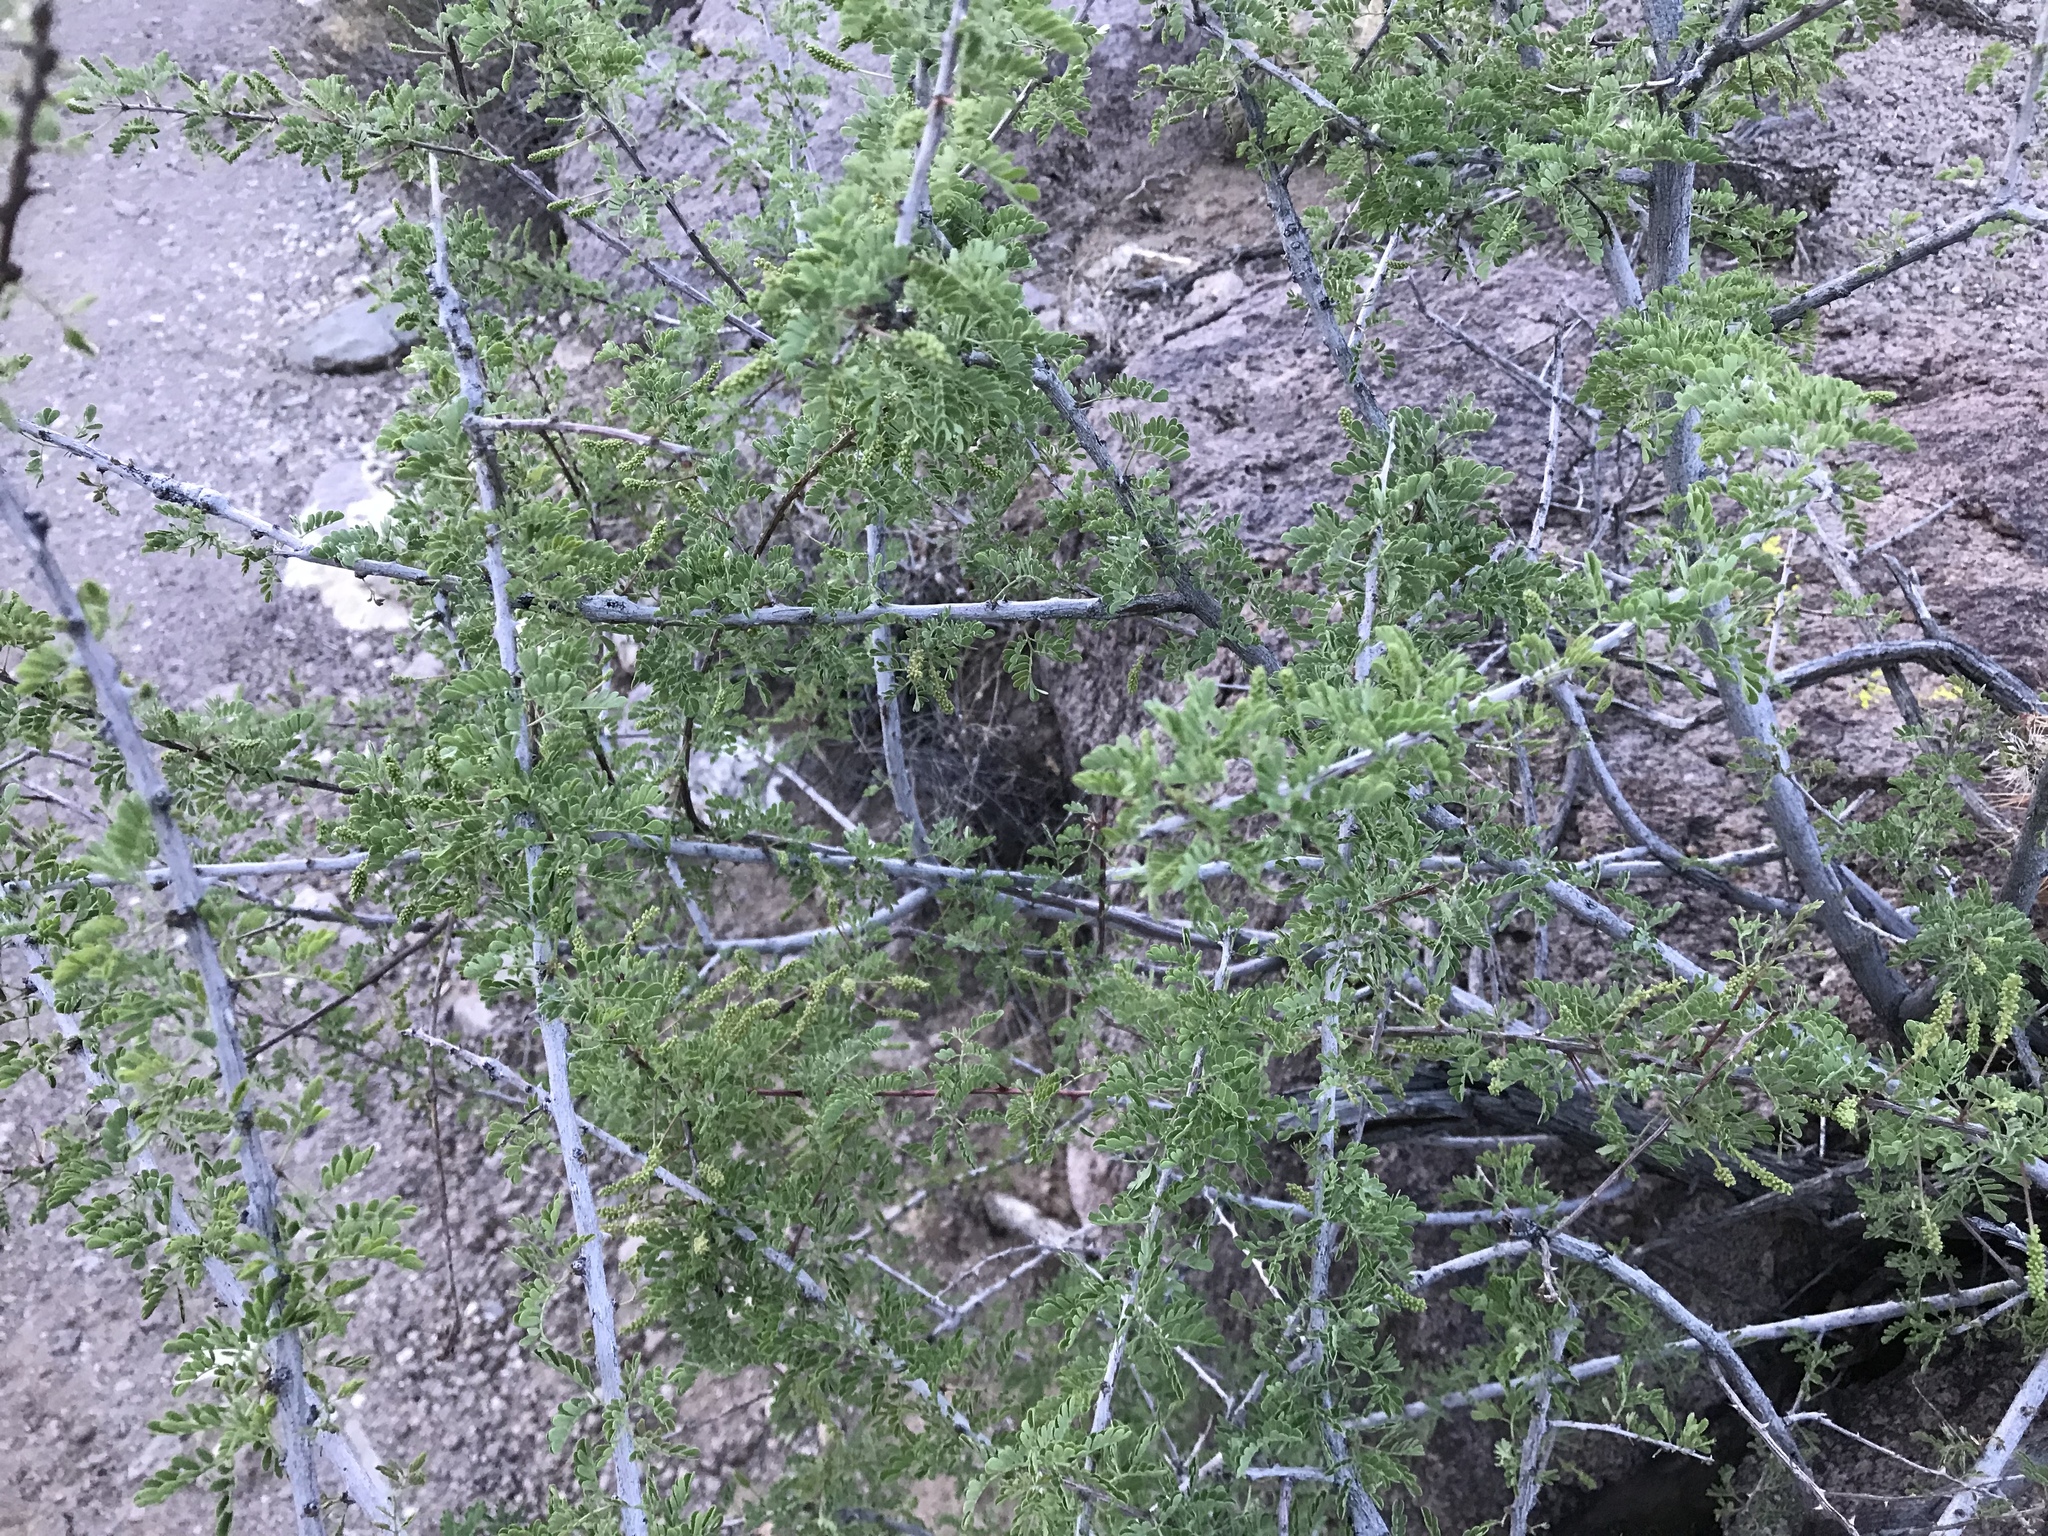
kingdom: Plantae
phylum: Tracheophyta
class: Magnoliopsida
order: Fabales
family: Fabaceae
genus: Senegalia
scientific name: Senegalia greggii
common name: Texas-mimosa
